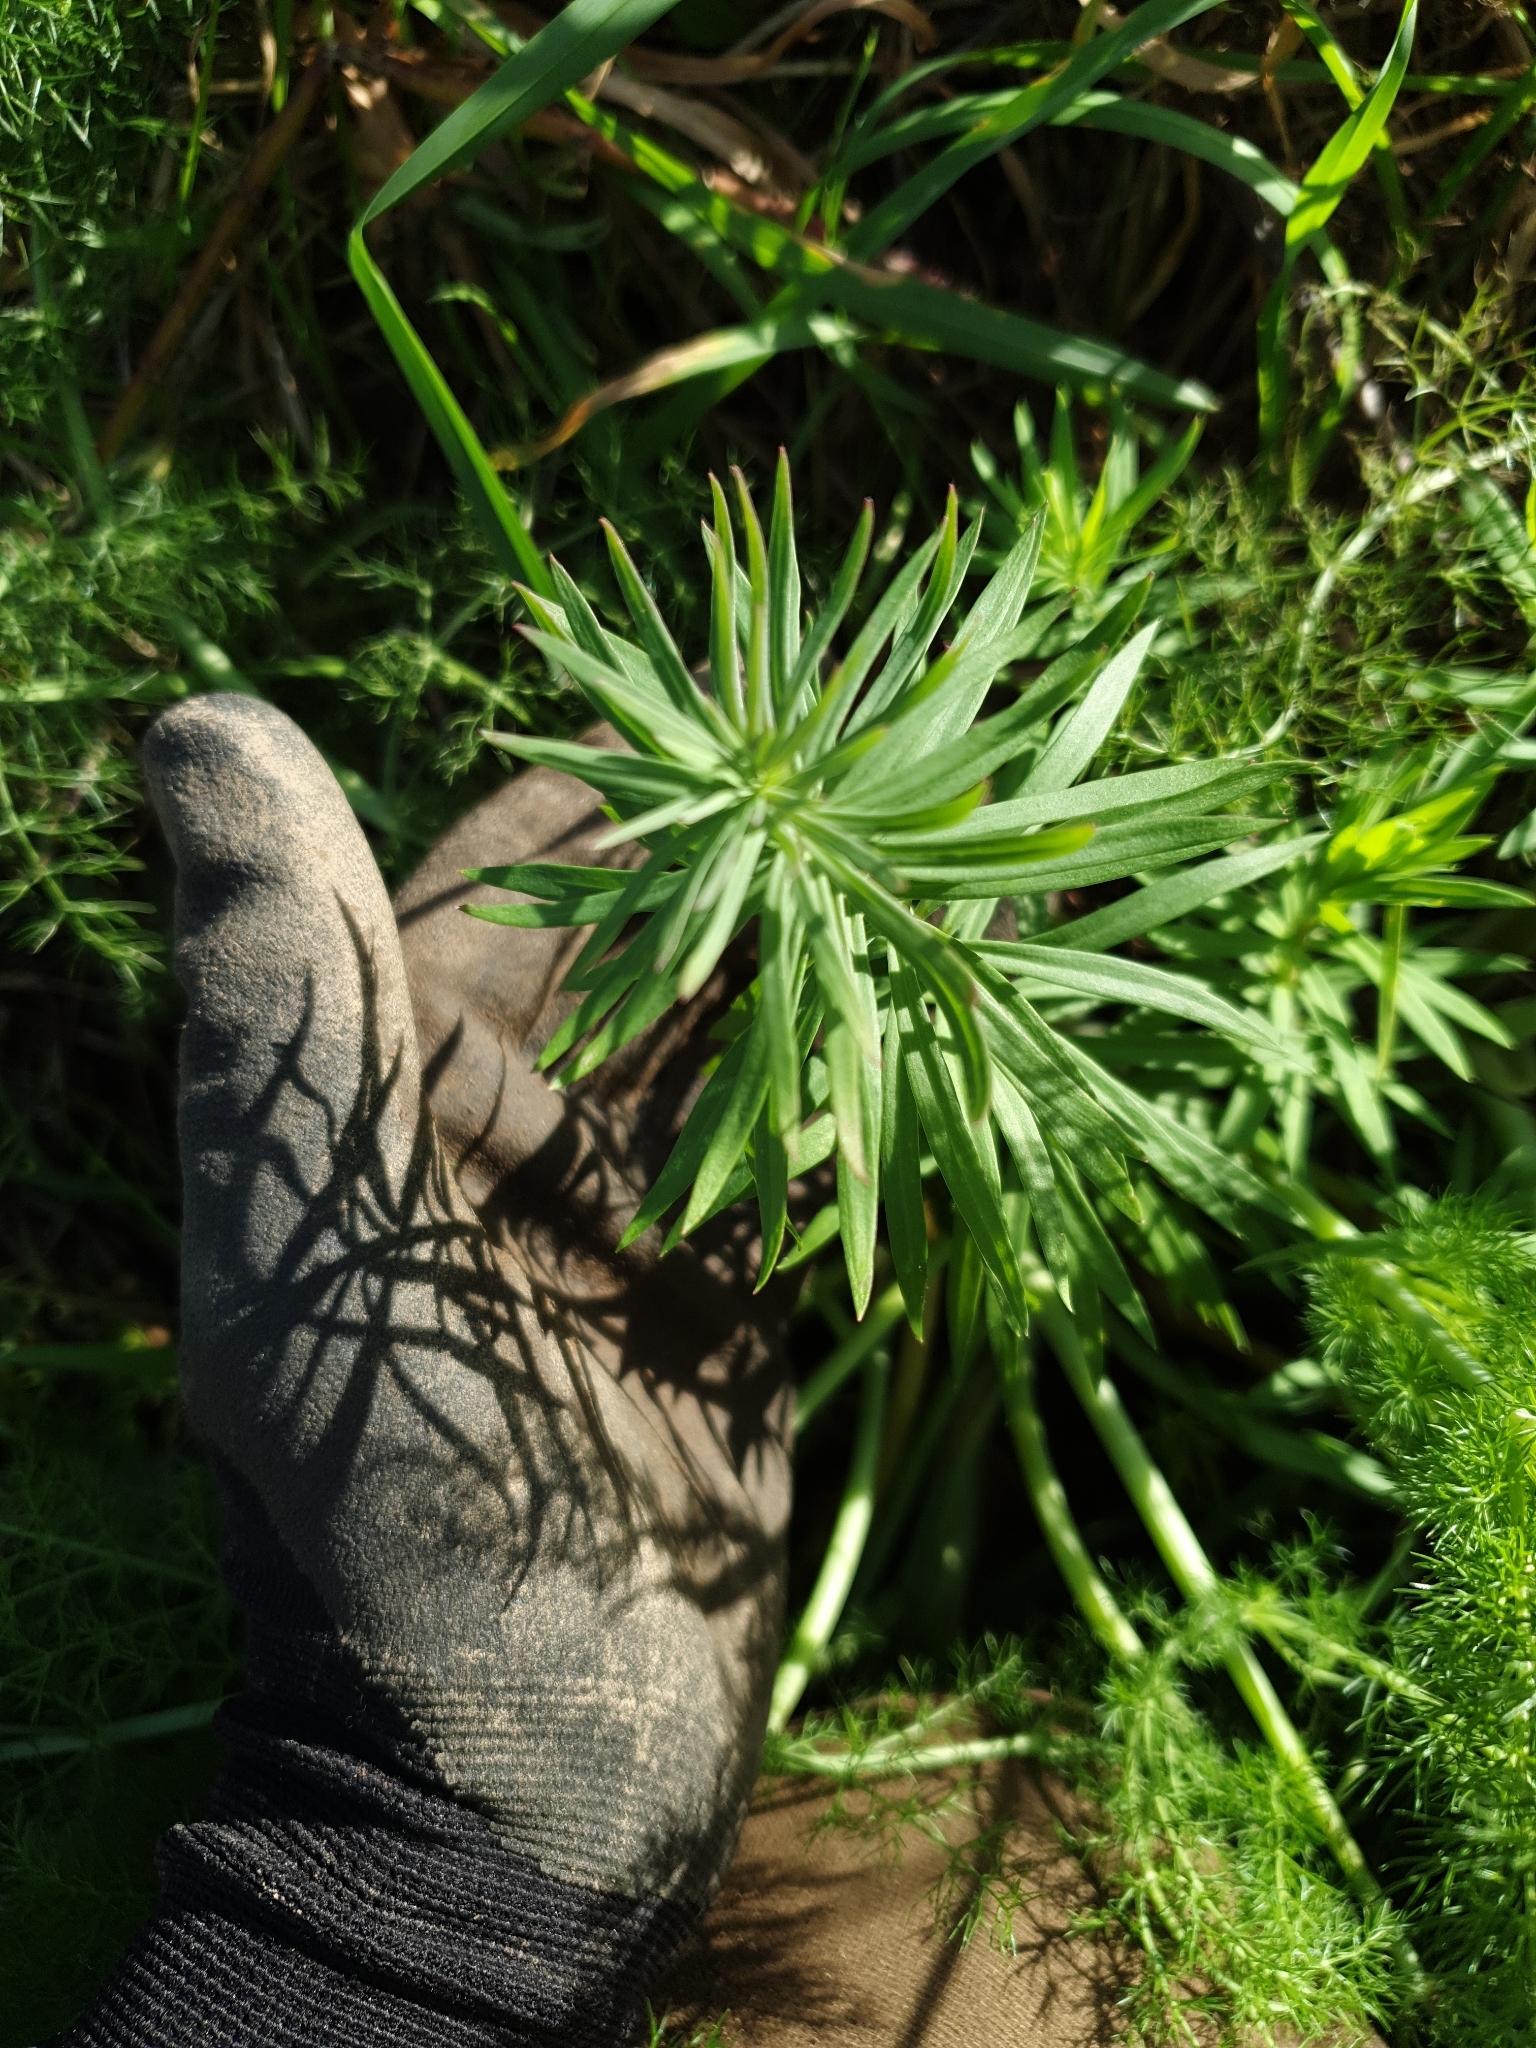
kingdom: Plantae
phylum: Tracheophyta
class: Magnoliopsida
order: Lamiales
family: Plantaginaceae
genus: Linaria
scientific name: Linaria purpurea
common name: Purple toadflax
